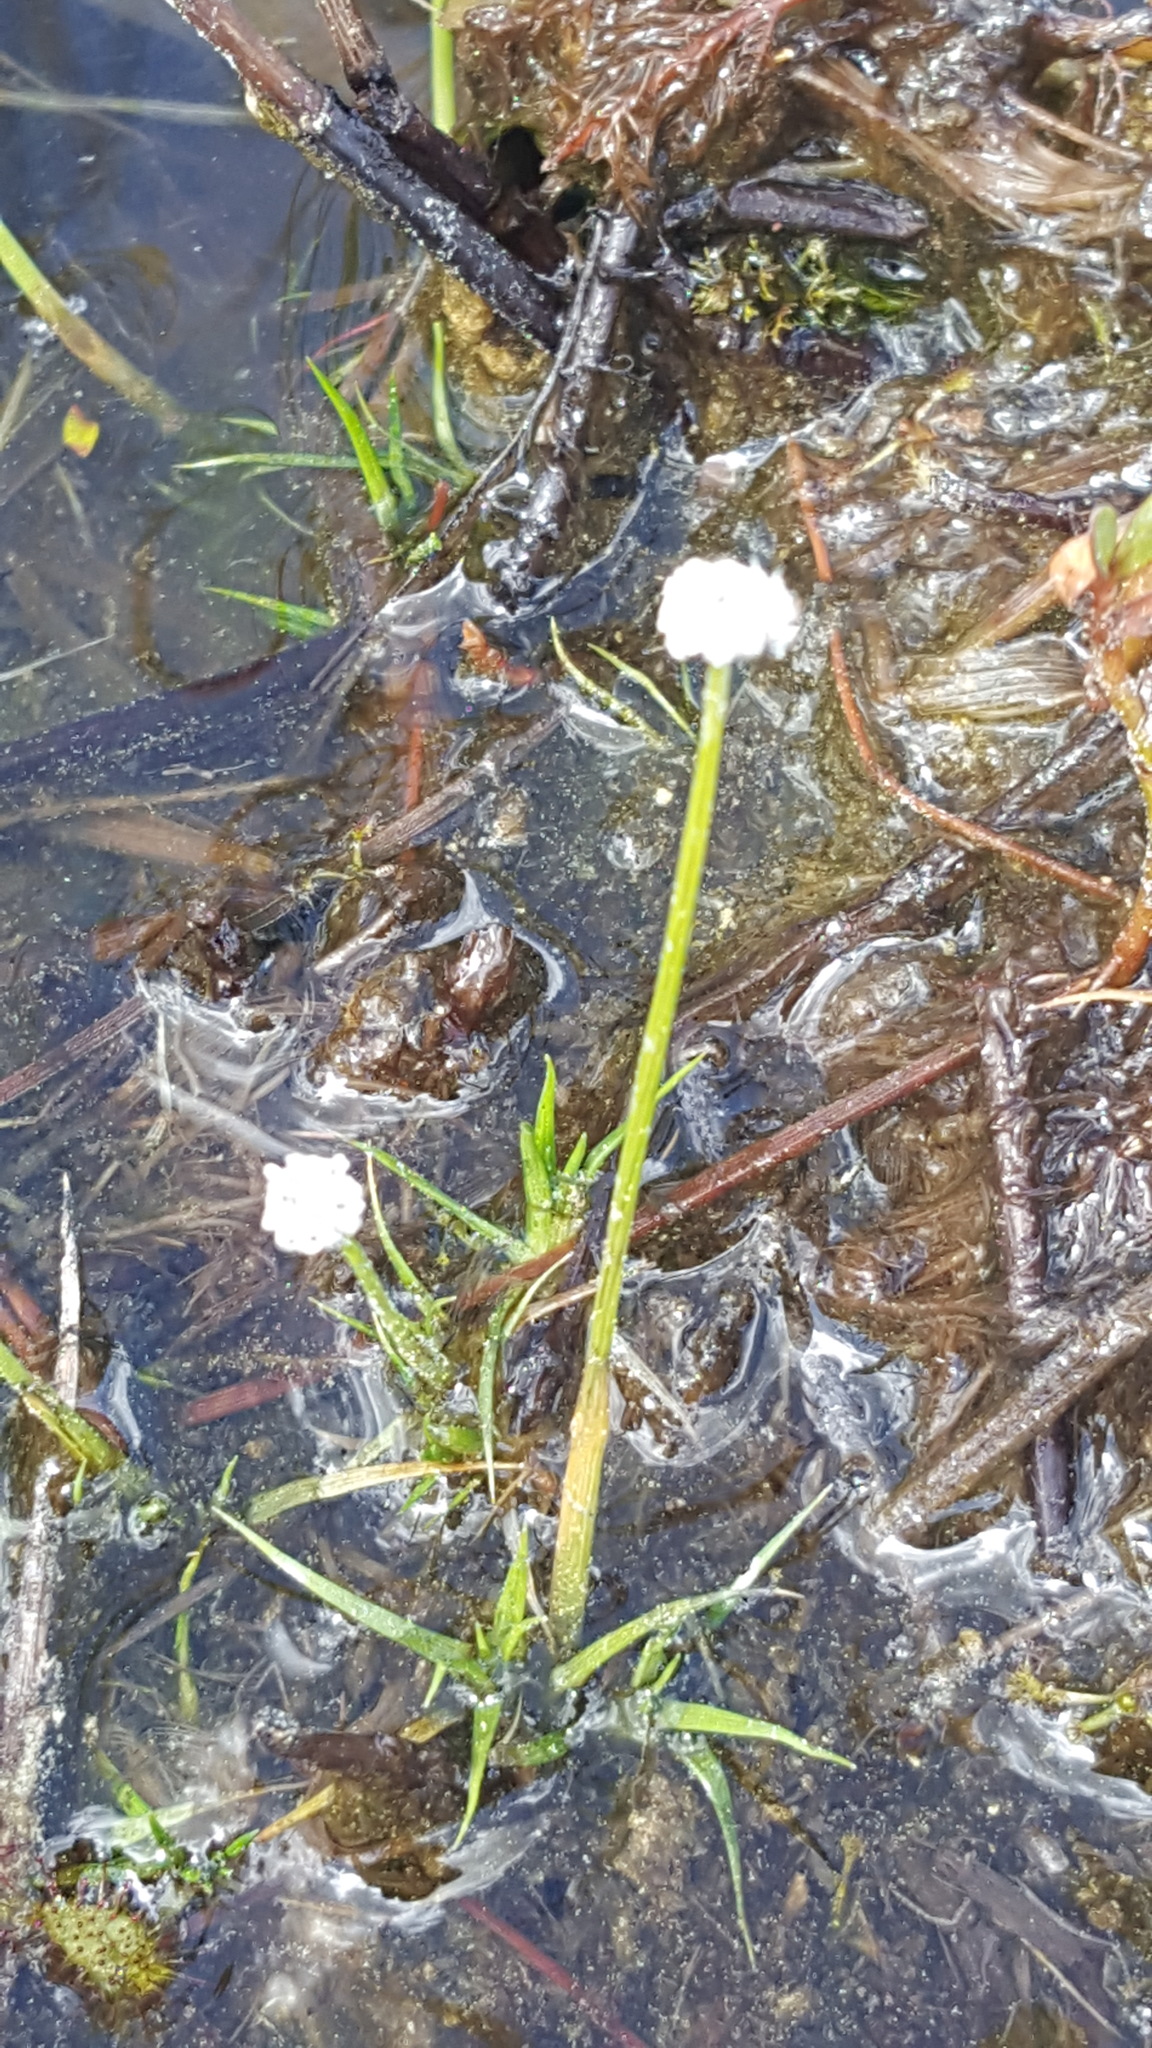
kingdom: Plantae
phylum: Tracheophyta
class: Liliopsida
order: Poales
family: Eriocaulaceae
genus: Eriocaulon
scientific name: Eriocaulon aquaticum
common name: Pipewort
